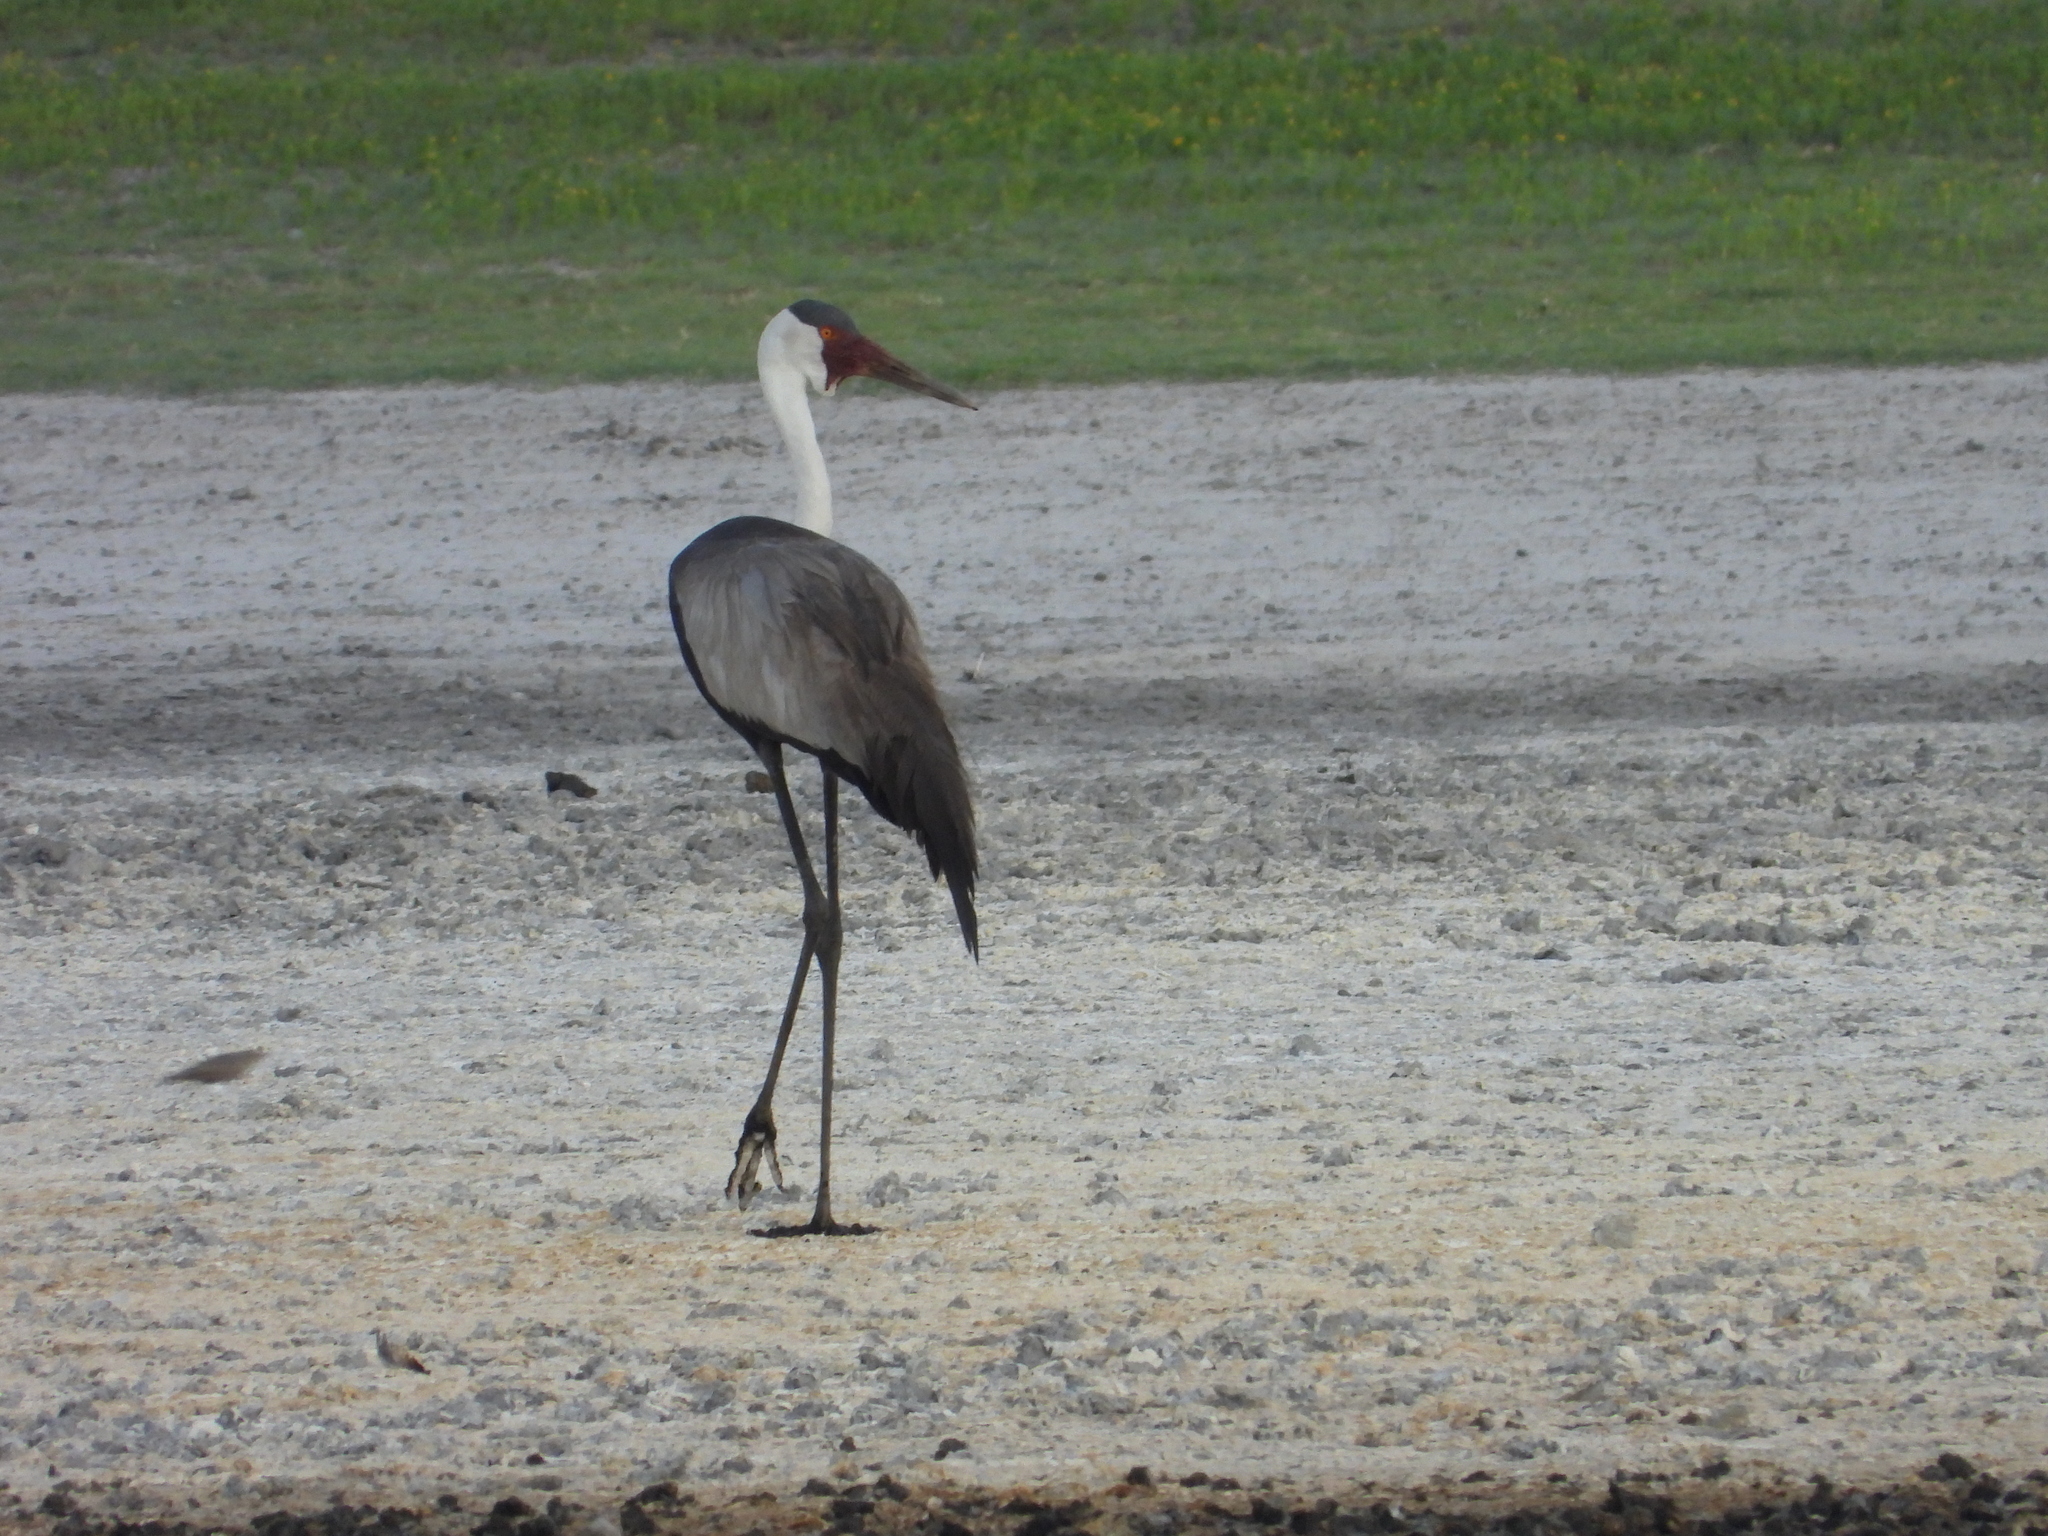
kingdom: Animalia
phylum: Chordata
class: Aves
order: Gruiformes
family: Gruidae
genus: Bugeranus
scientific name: Bugeranus carunculatus
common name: Wattled crane
